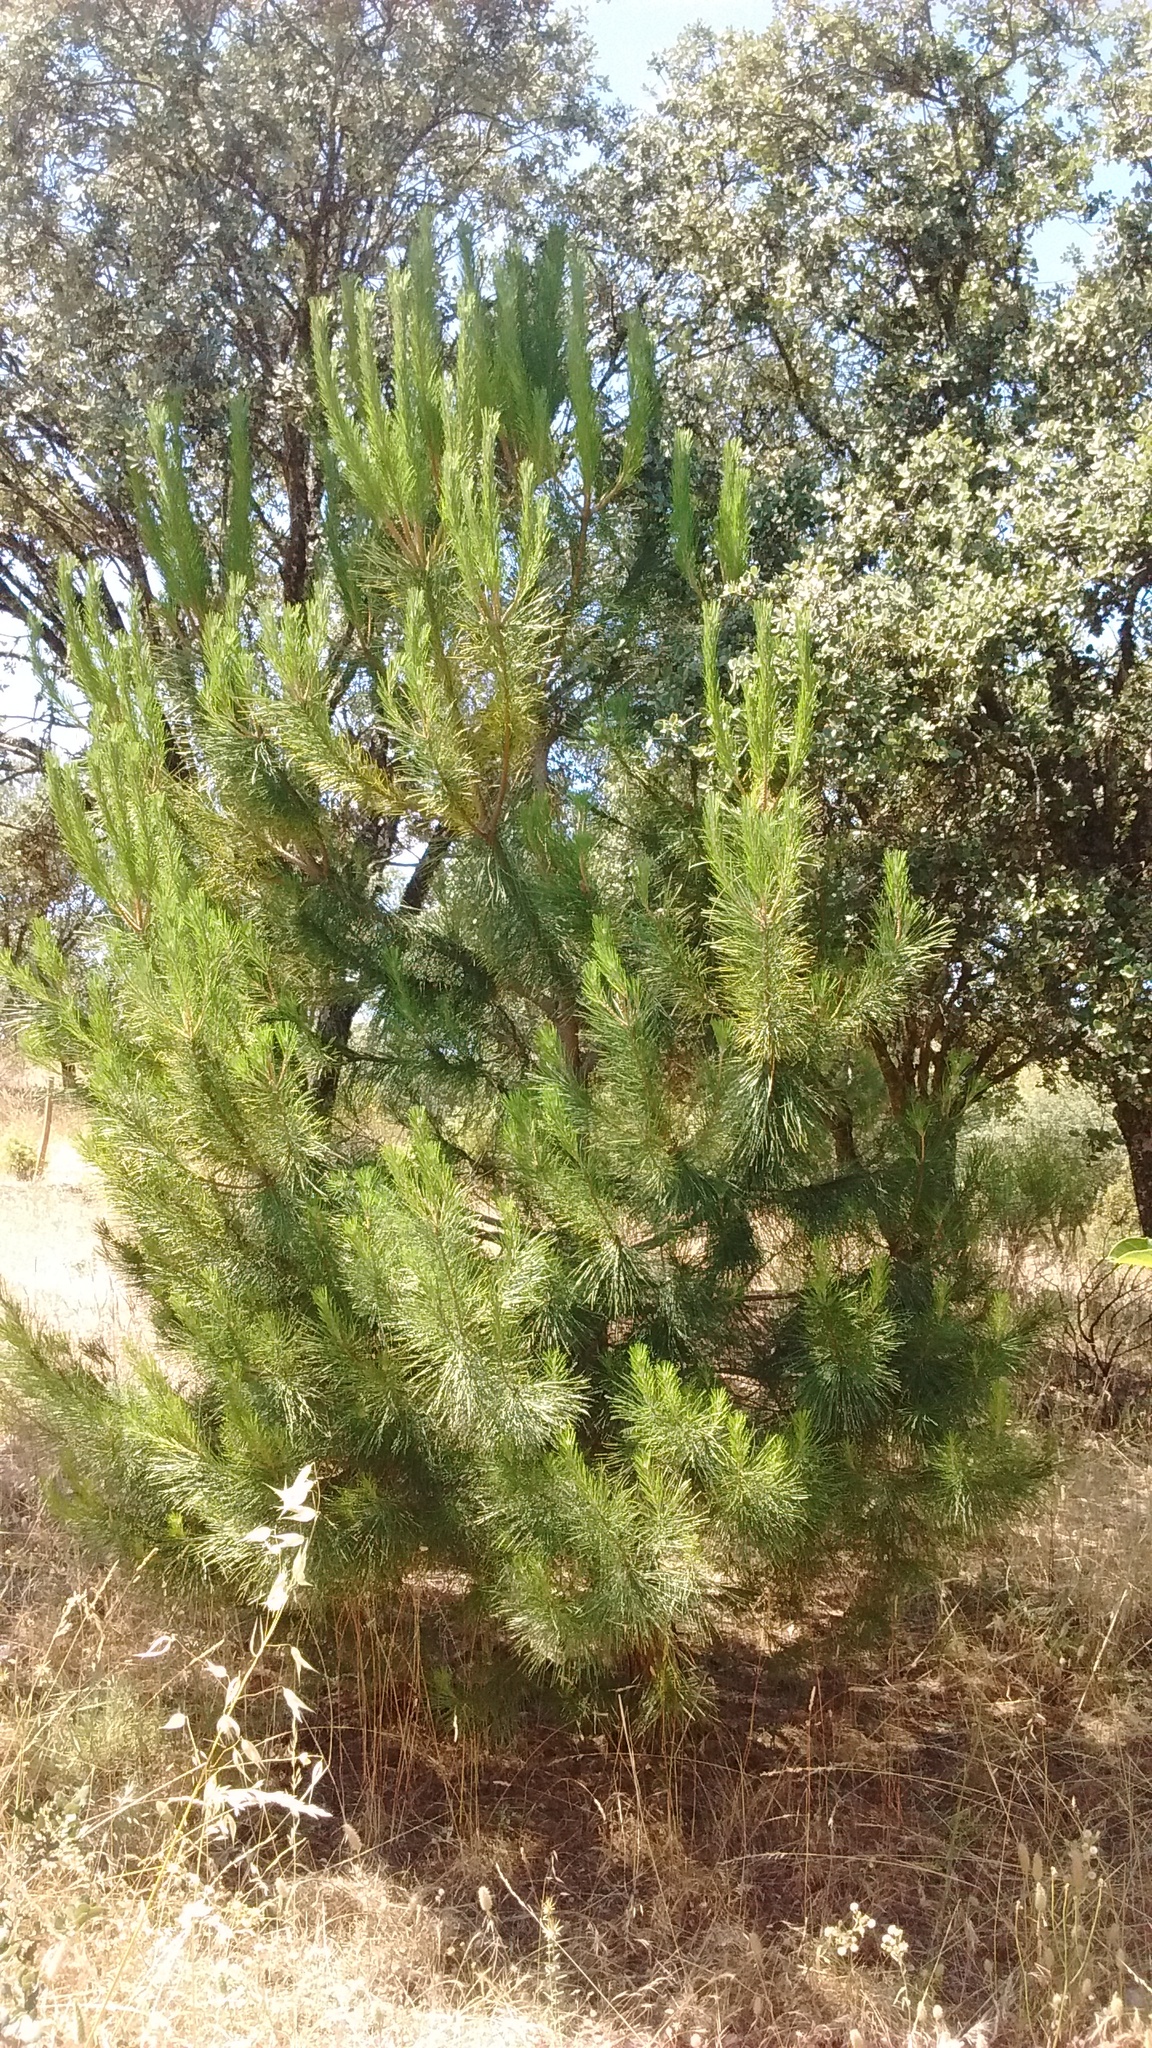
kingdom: Plantae
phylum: Tracheophyta
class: Pinopsida
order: Pinales
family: Pinaceae
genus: Pinus
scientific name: Pinus pinea
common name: Italian stone pine
